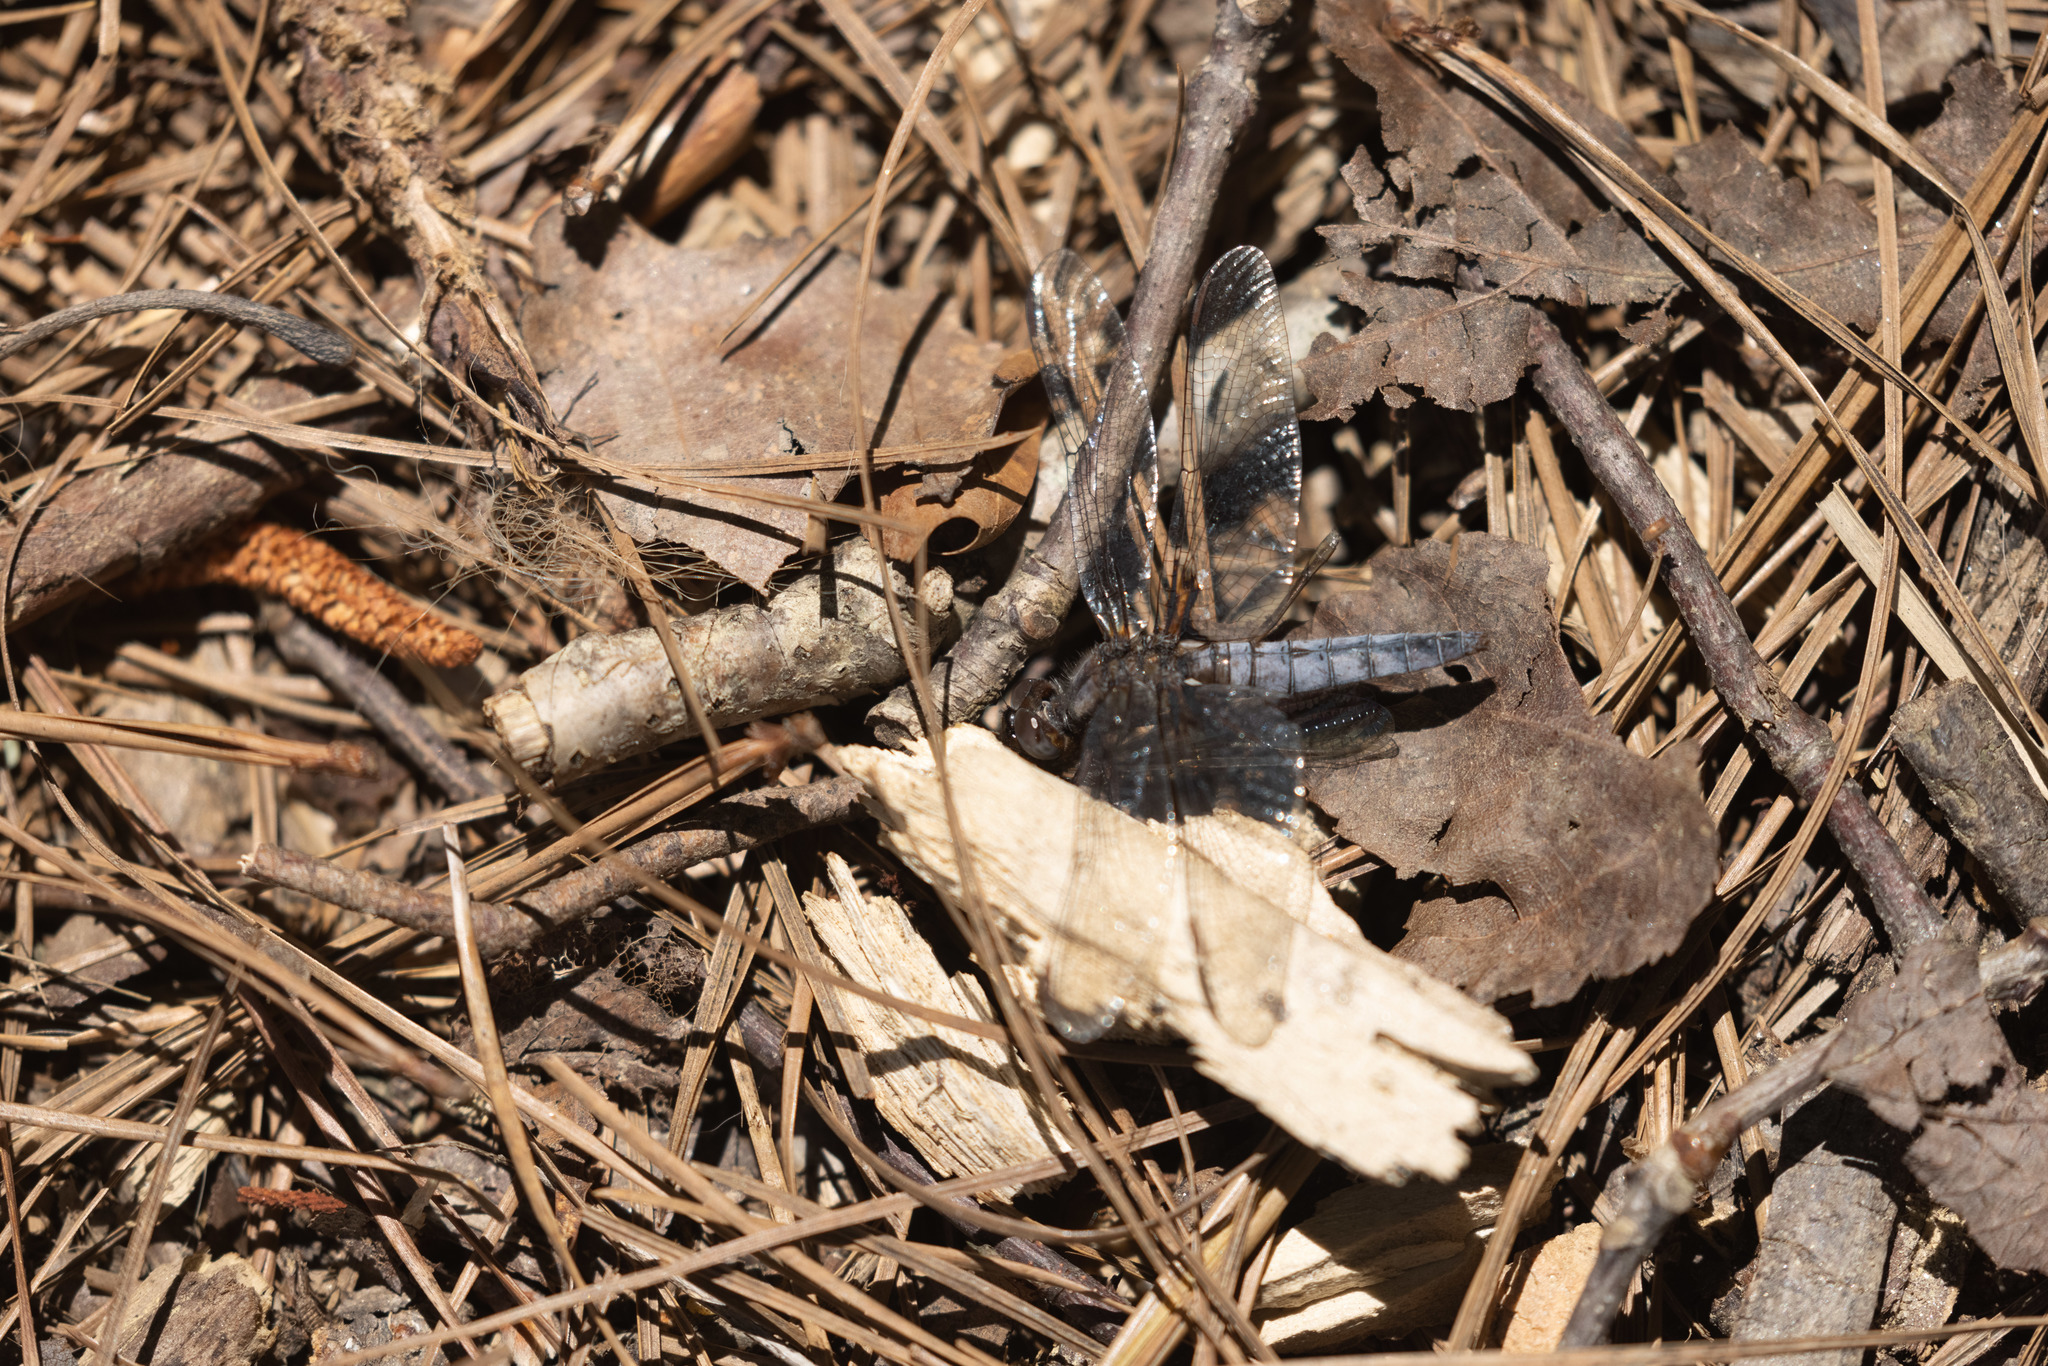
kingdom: Animalia
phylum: Arthropoda
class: Insecta
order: Odonata
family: Libellulidae
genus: Ladona
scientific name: Ladona deplanata
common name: Blue corporal
